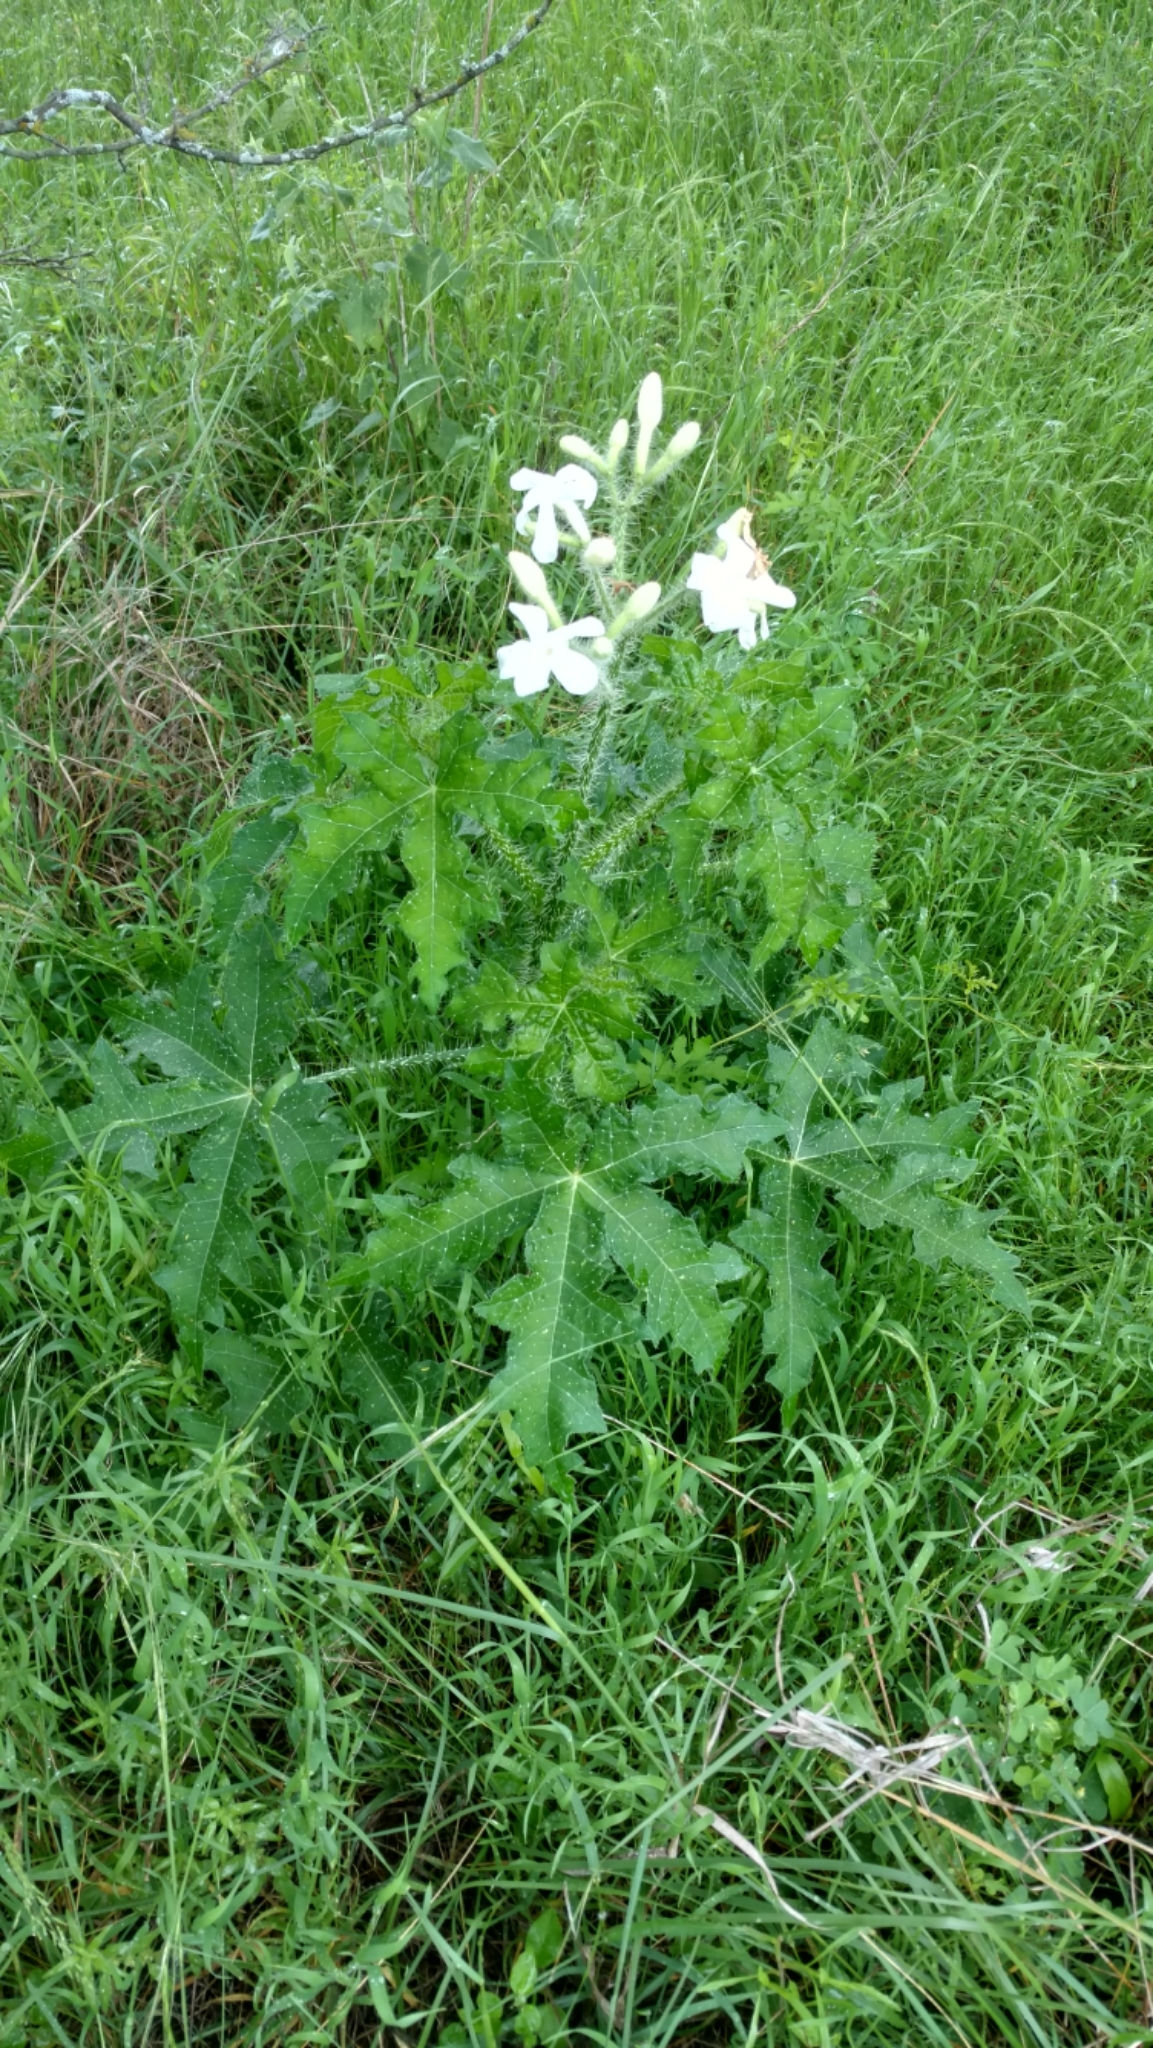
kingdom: Plantae
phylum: Tracheophyta
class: Magnoliopsida
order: Malpighiales
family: Euphorbiaceae
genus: Cnidoscolus
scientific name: Cnidoscolus texanus
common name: Texas bull-nettle
